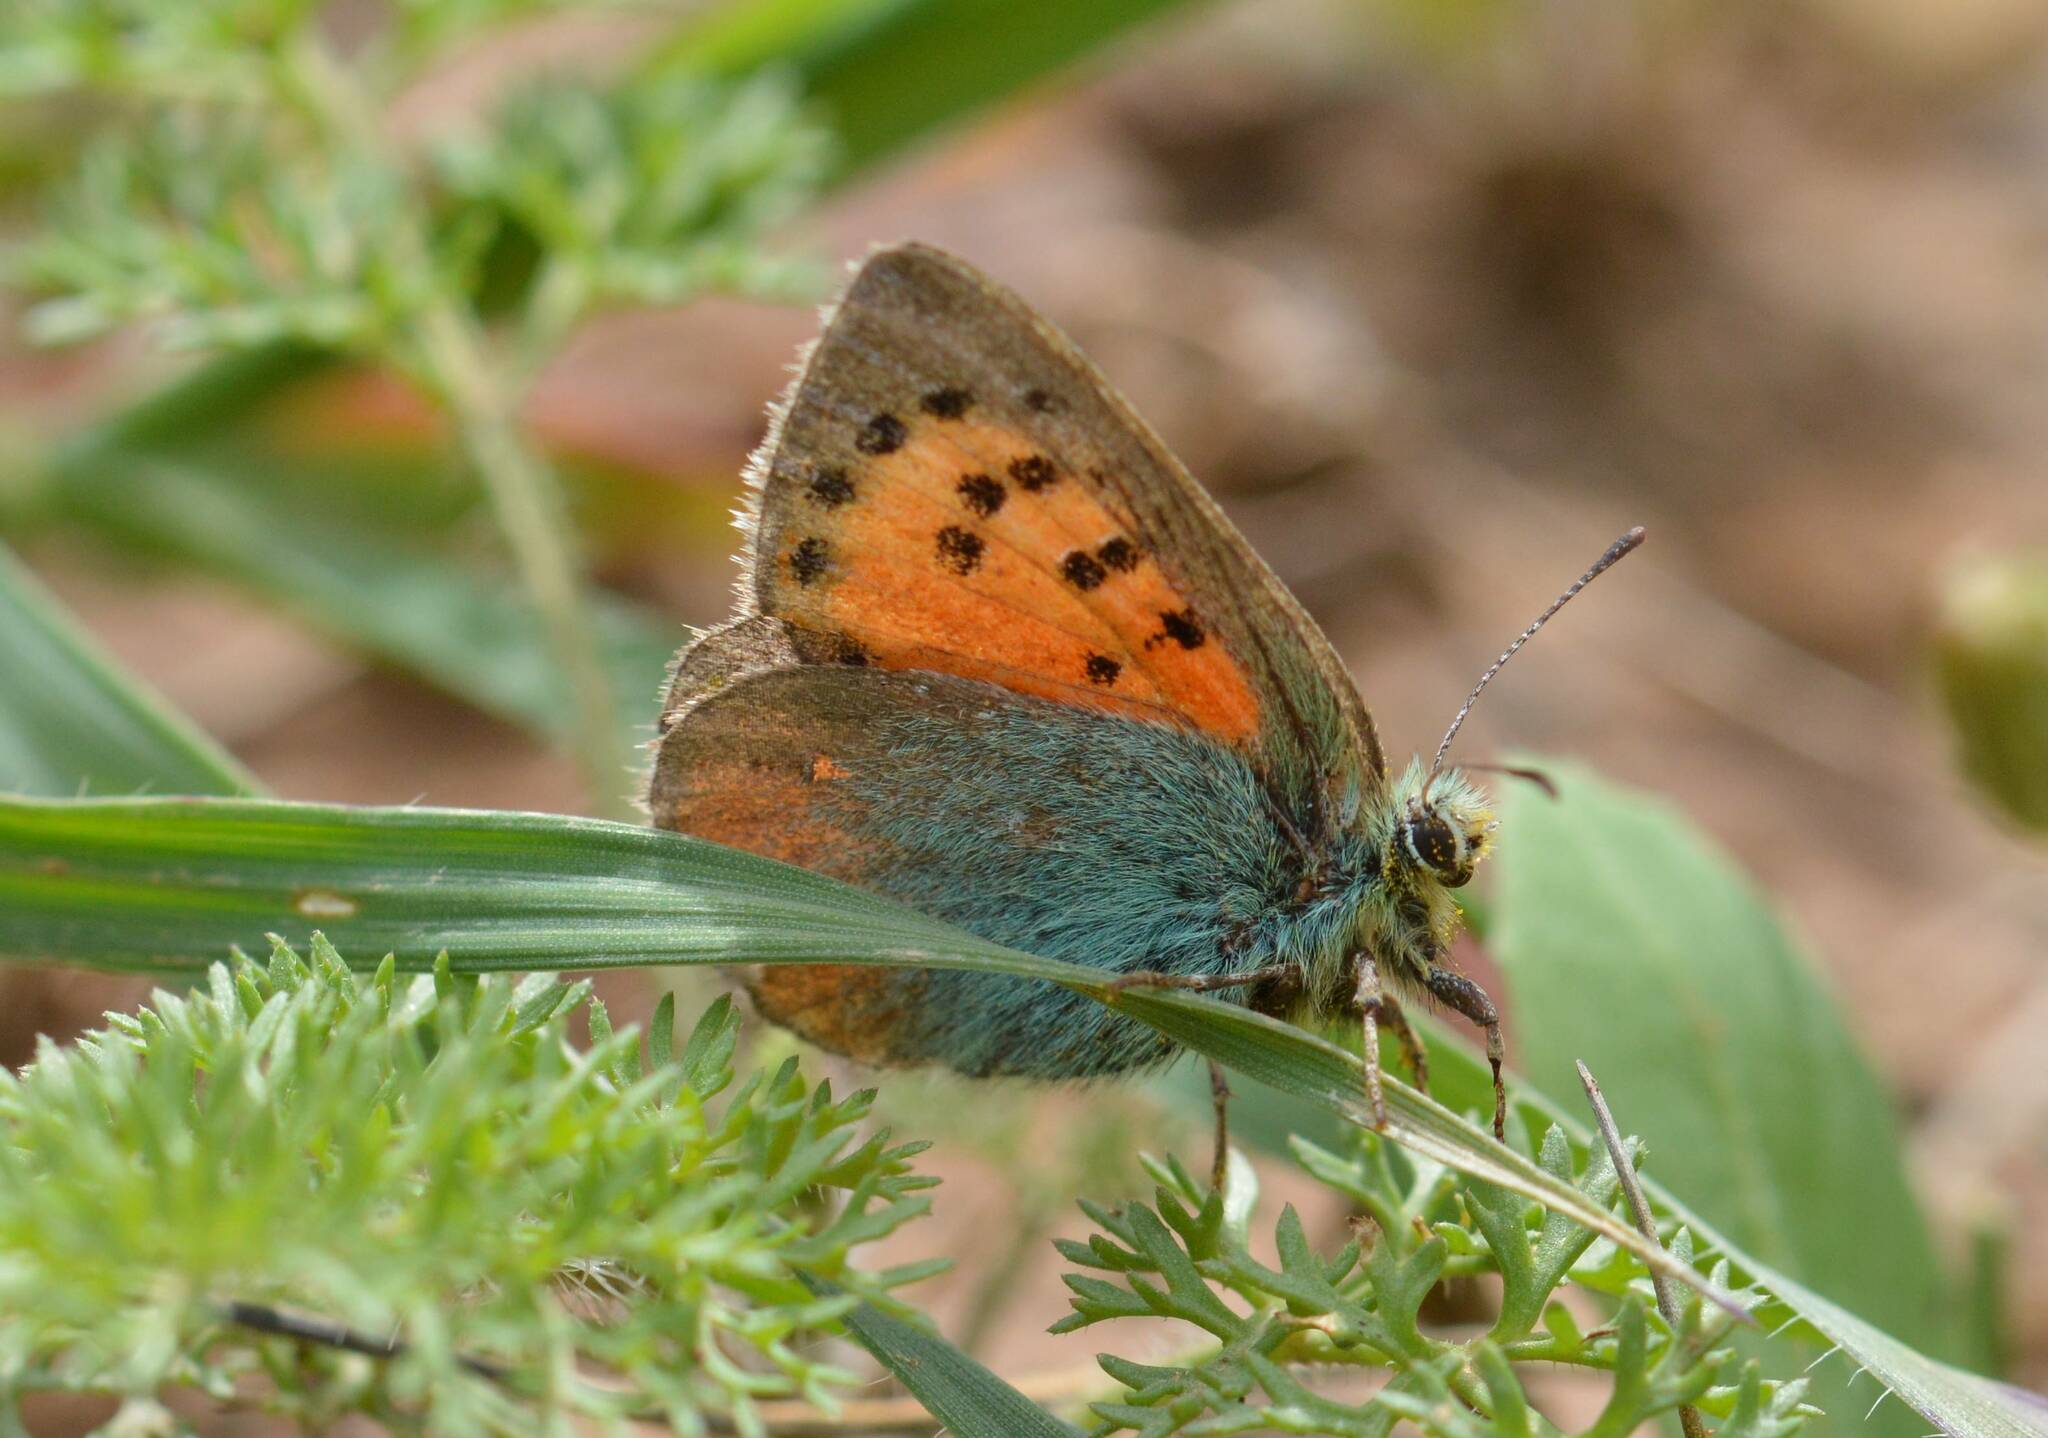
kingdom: Animalia
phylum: Arthropoda
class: Insecta
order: Lepidoptera
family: Lycaenidae
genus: Tomares
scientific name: Tomares ballus
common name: Provence hairstreak
